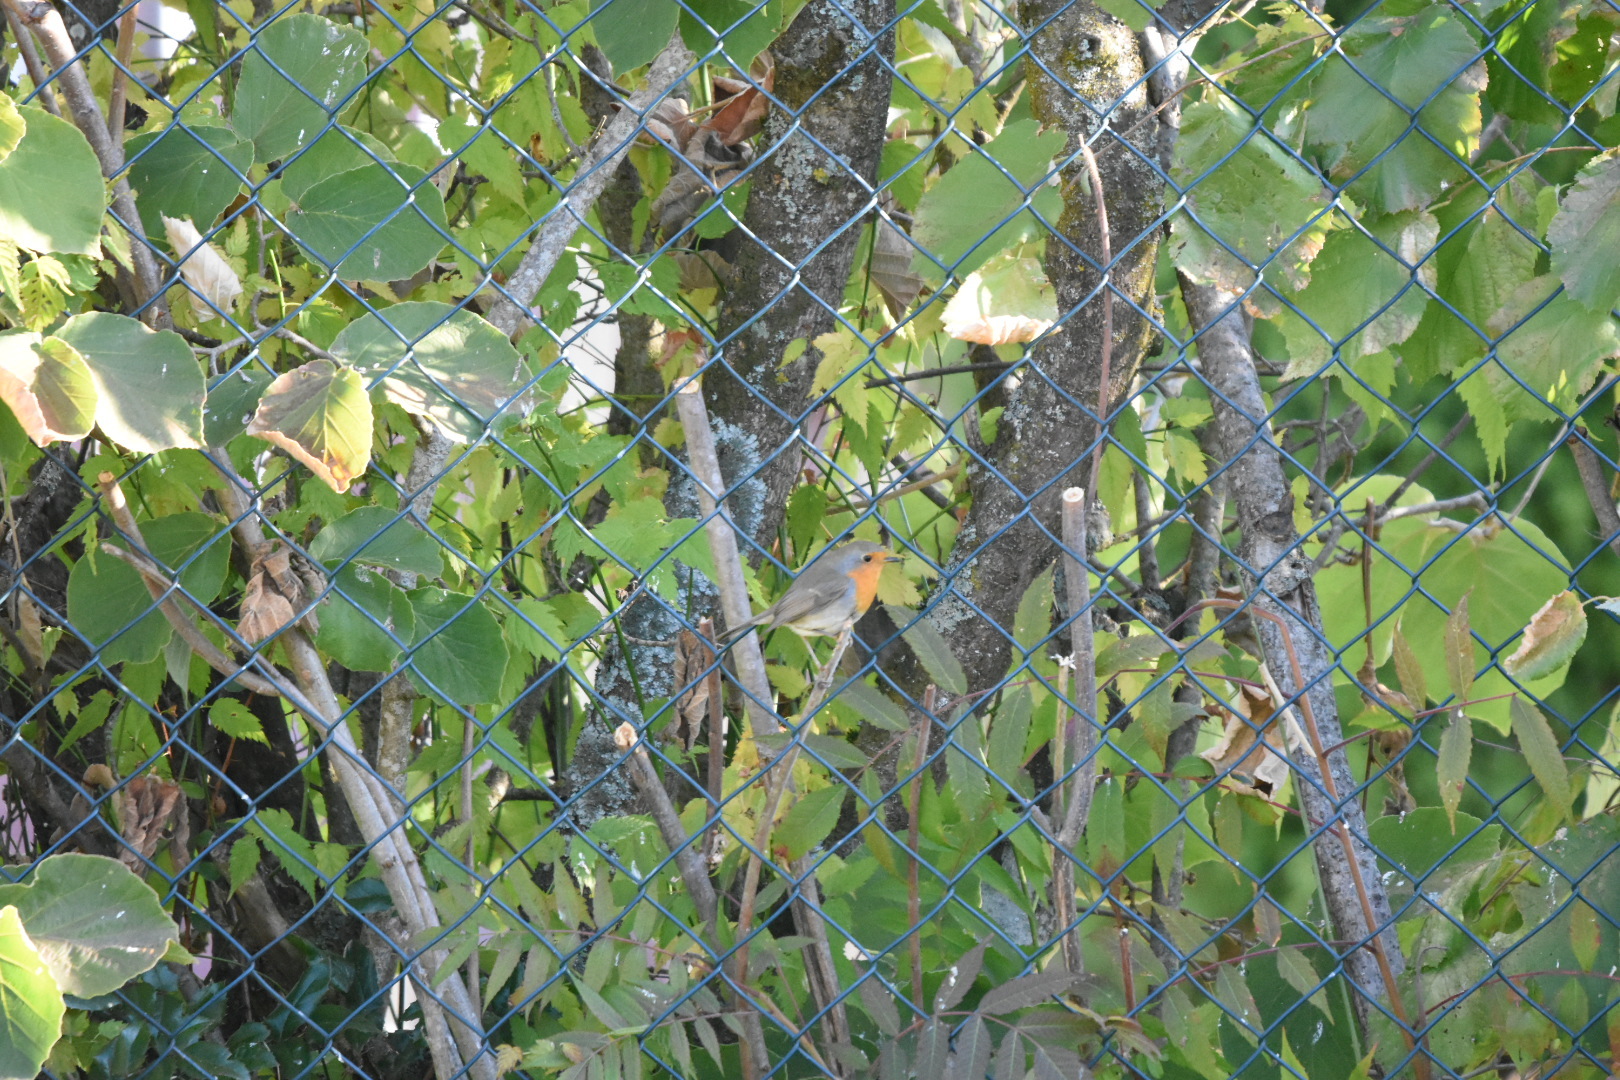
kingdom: Animalia
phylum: Chordata
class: Aves
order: Passeriformes
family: Muscicapidae
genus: Erithacus
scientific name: Erithacus rubecula
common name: European robin
